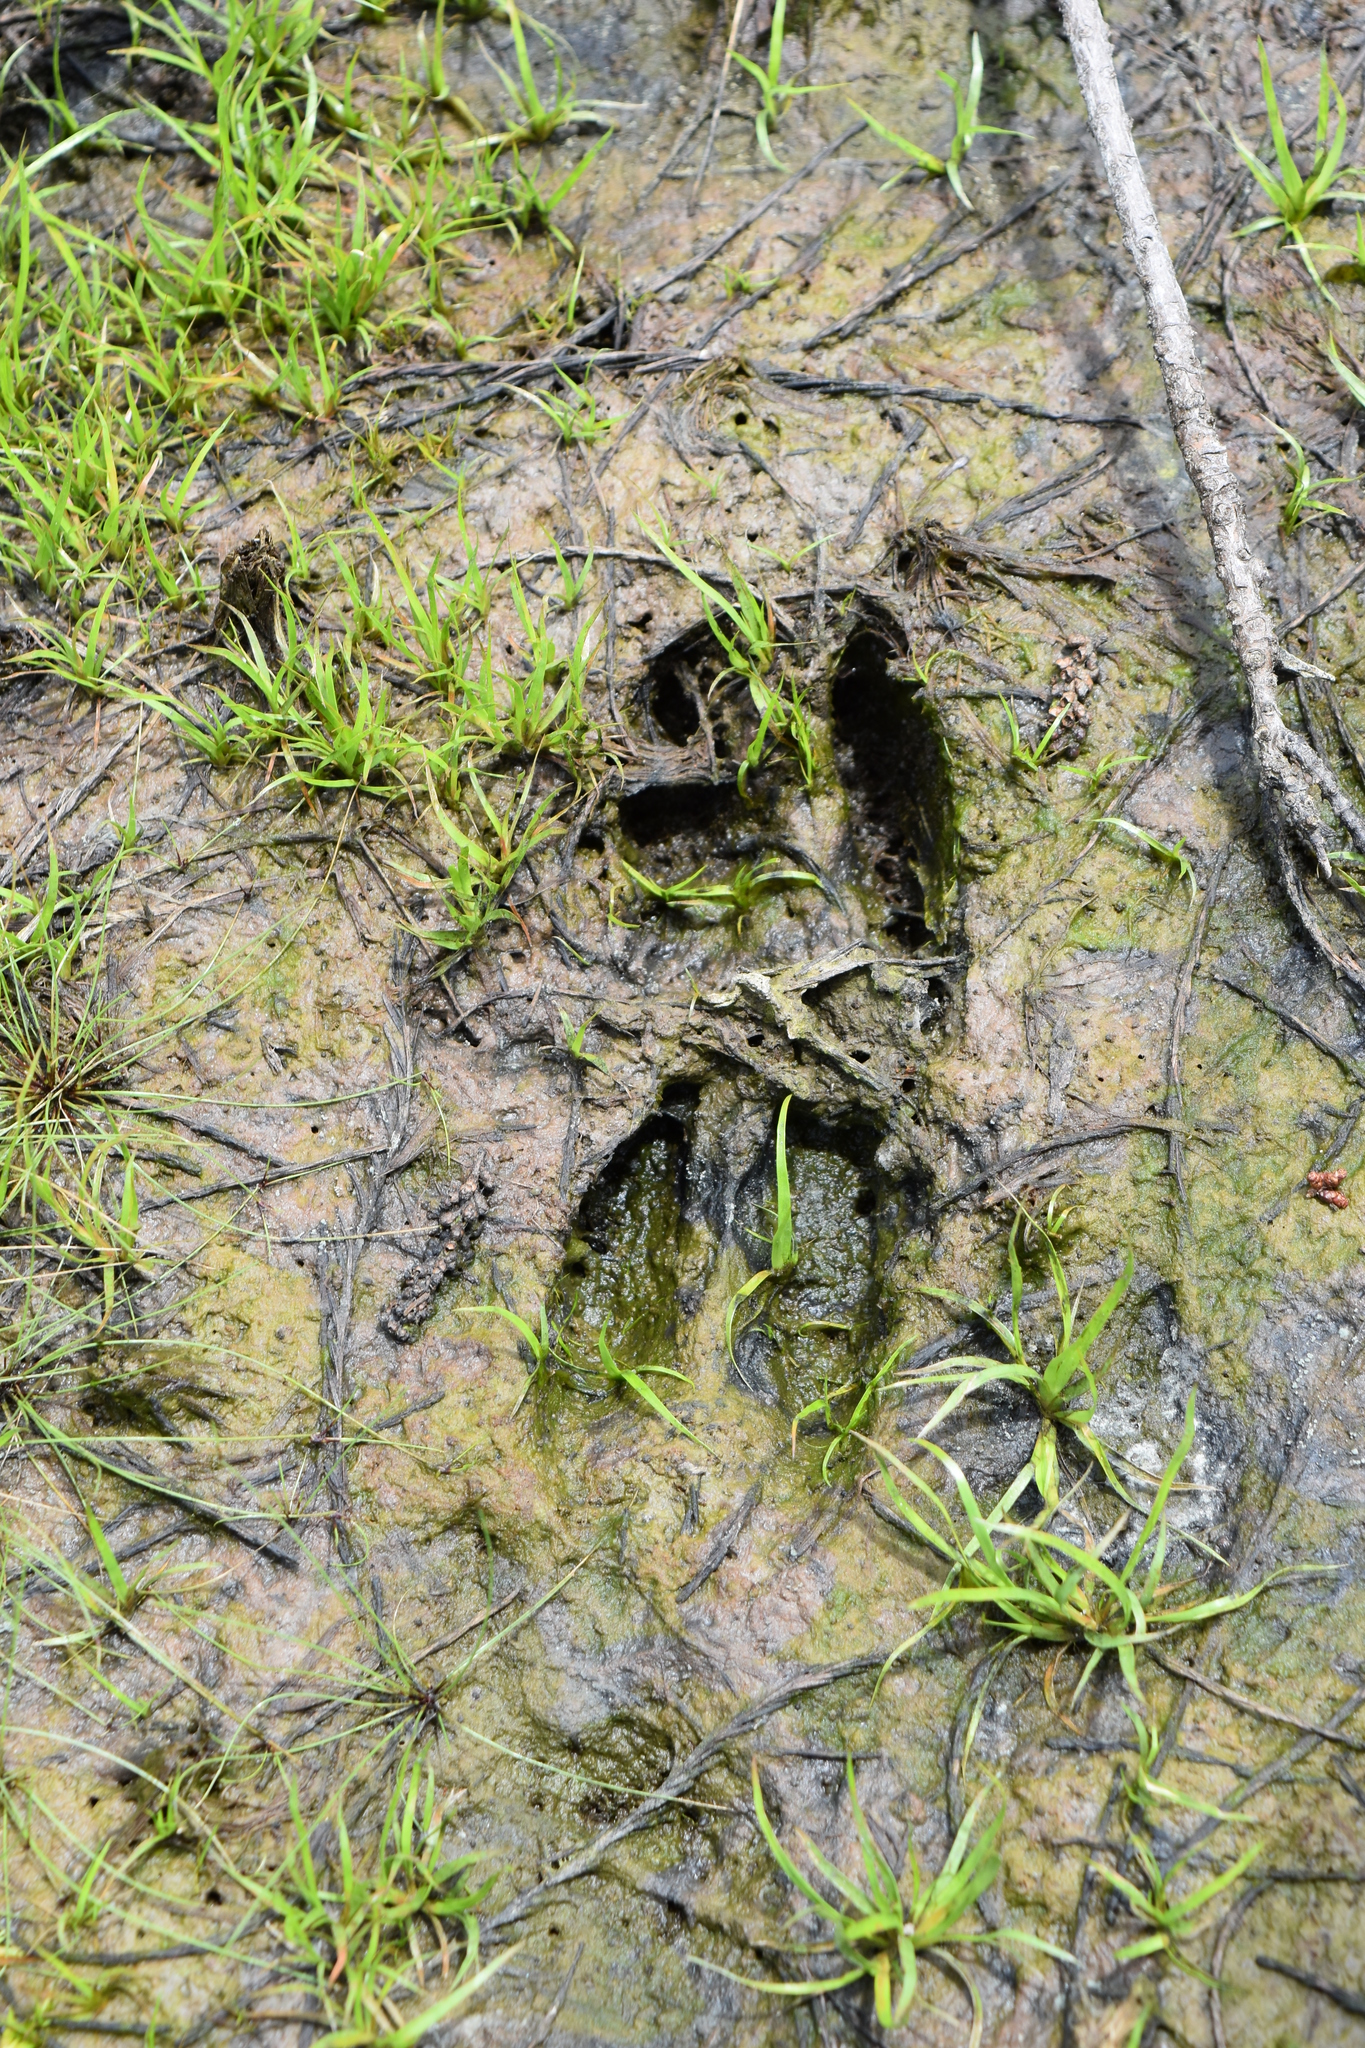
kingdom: Animalia
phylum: Chordata
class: Mammalia
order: Artiodactyla
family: Cervidae
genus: Odocoileus
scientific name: Odocoileus virginianus
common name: White-tailed deer
